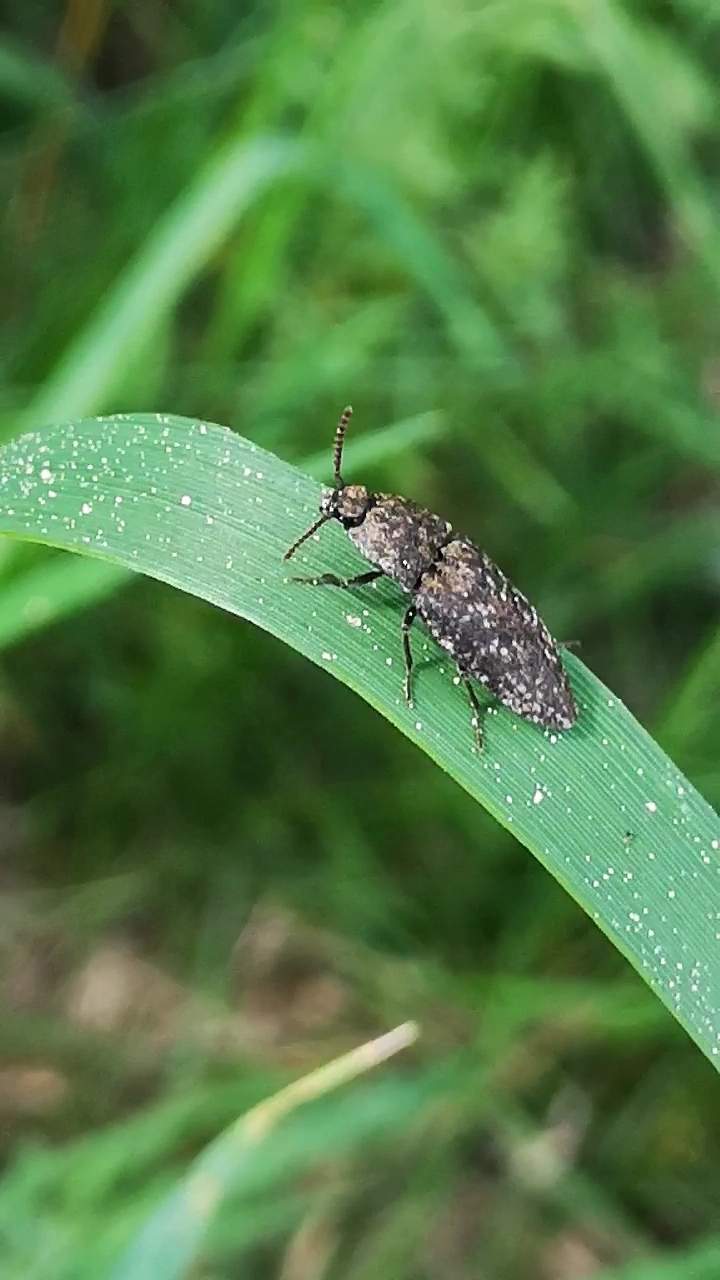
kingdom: Animalia
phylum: Arthropoda
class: Insecta
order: Coleoptera
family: Elateridae
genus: Agrypnus
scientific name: Agrypnus murinus
